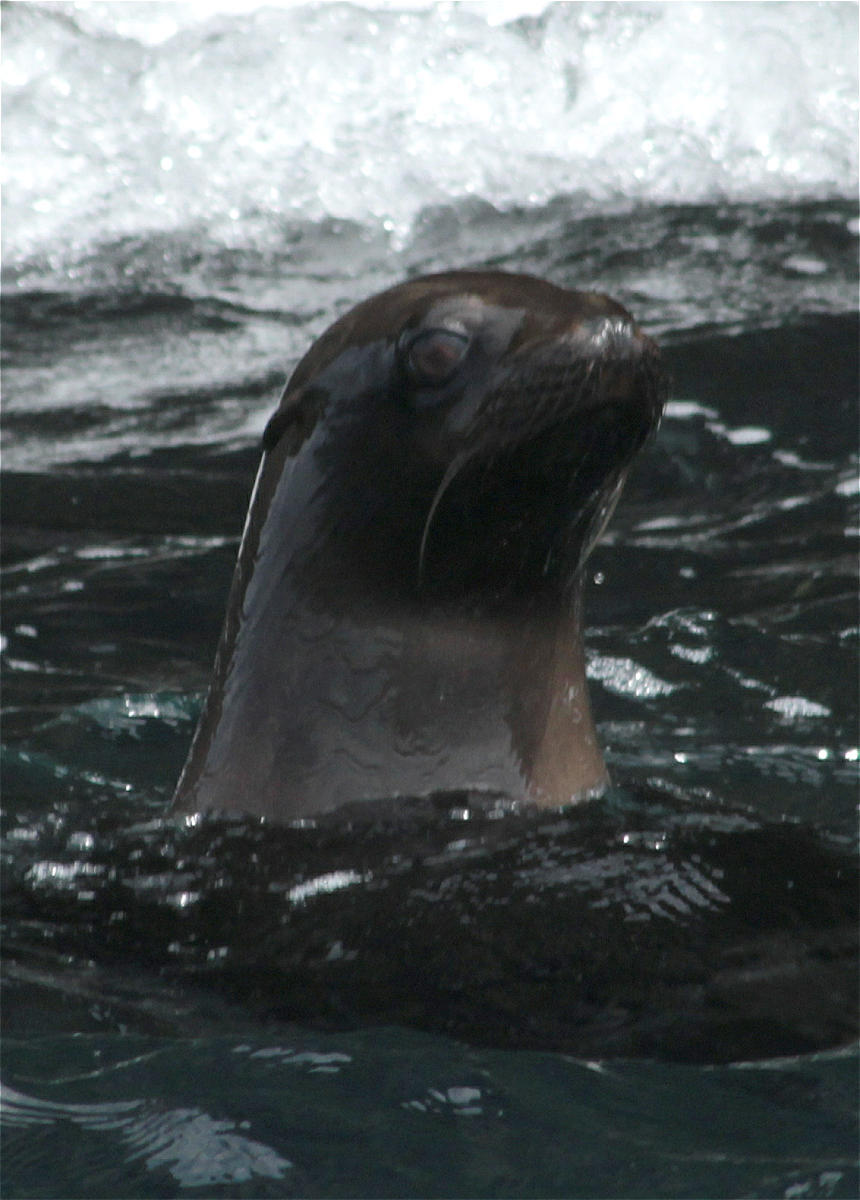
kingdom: Animalia
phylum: Chordata
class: Mammalia
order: Carnivora
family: Otariidae
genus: Zalophus
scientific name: Zalophus wollebaeki
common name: Galapagos sea lion
